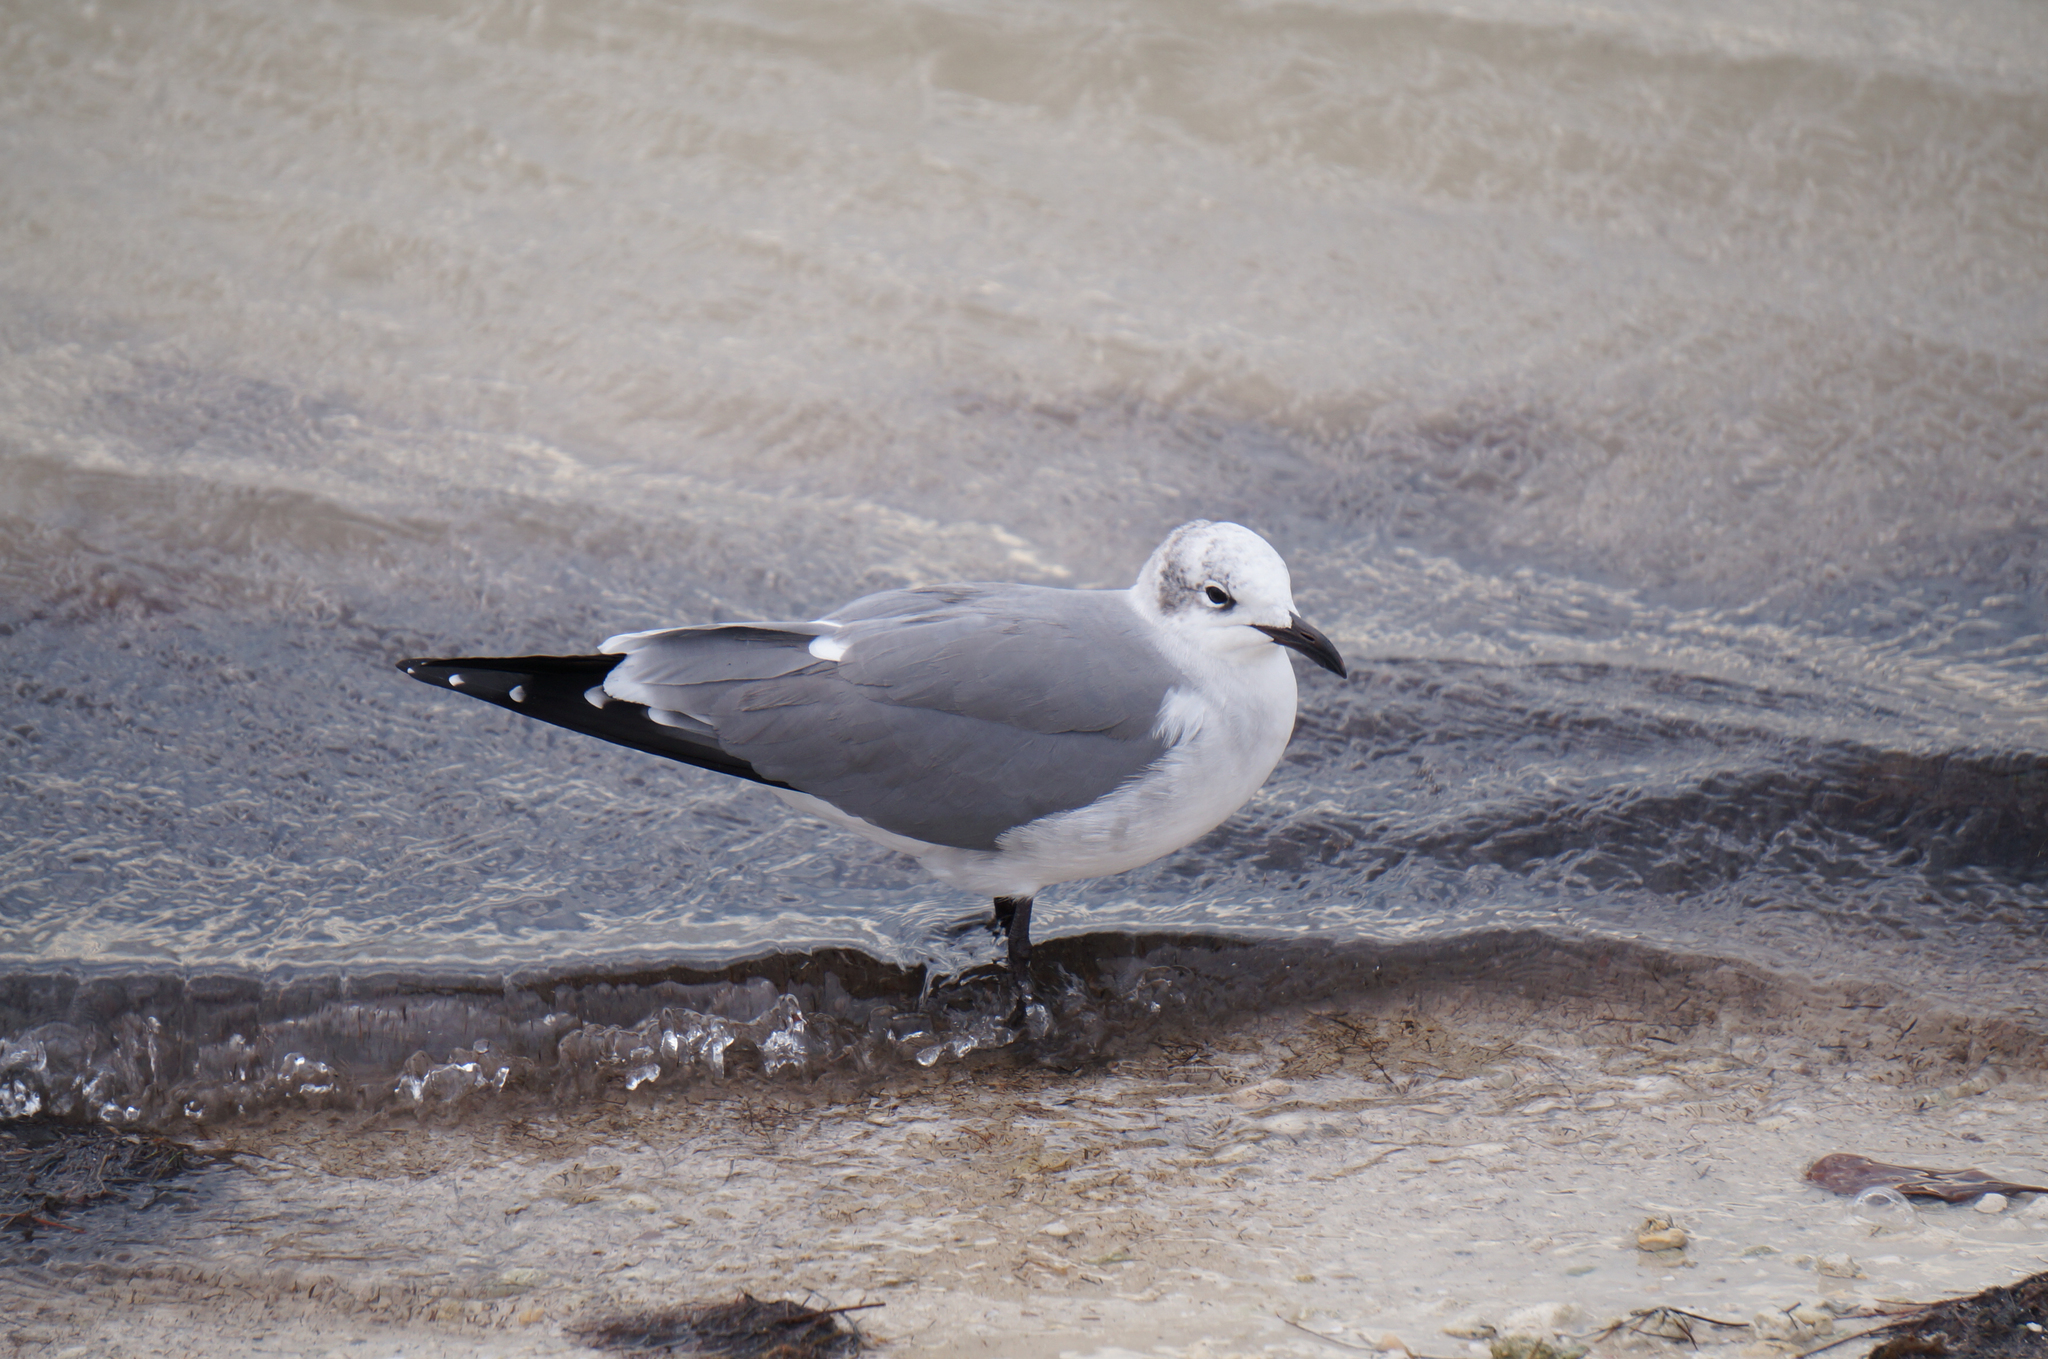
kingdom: Animalia
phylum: Chordata
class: Aves
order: Charadriiformes
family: Laridae
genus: Leucophaeus
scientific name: Leucophaeus atricilla
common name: Laughing gull
